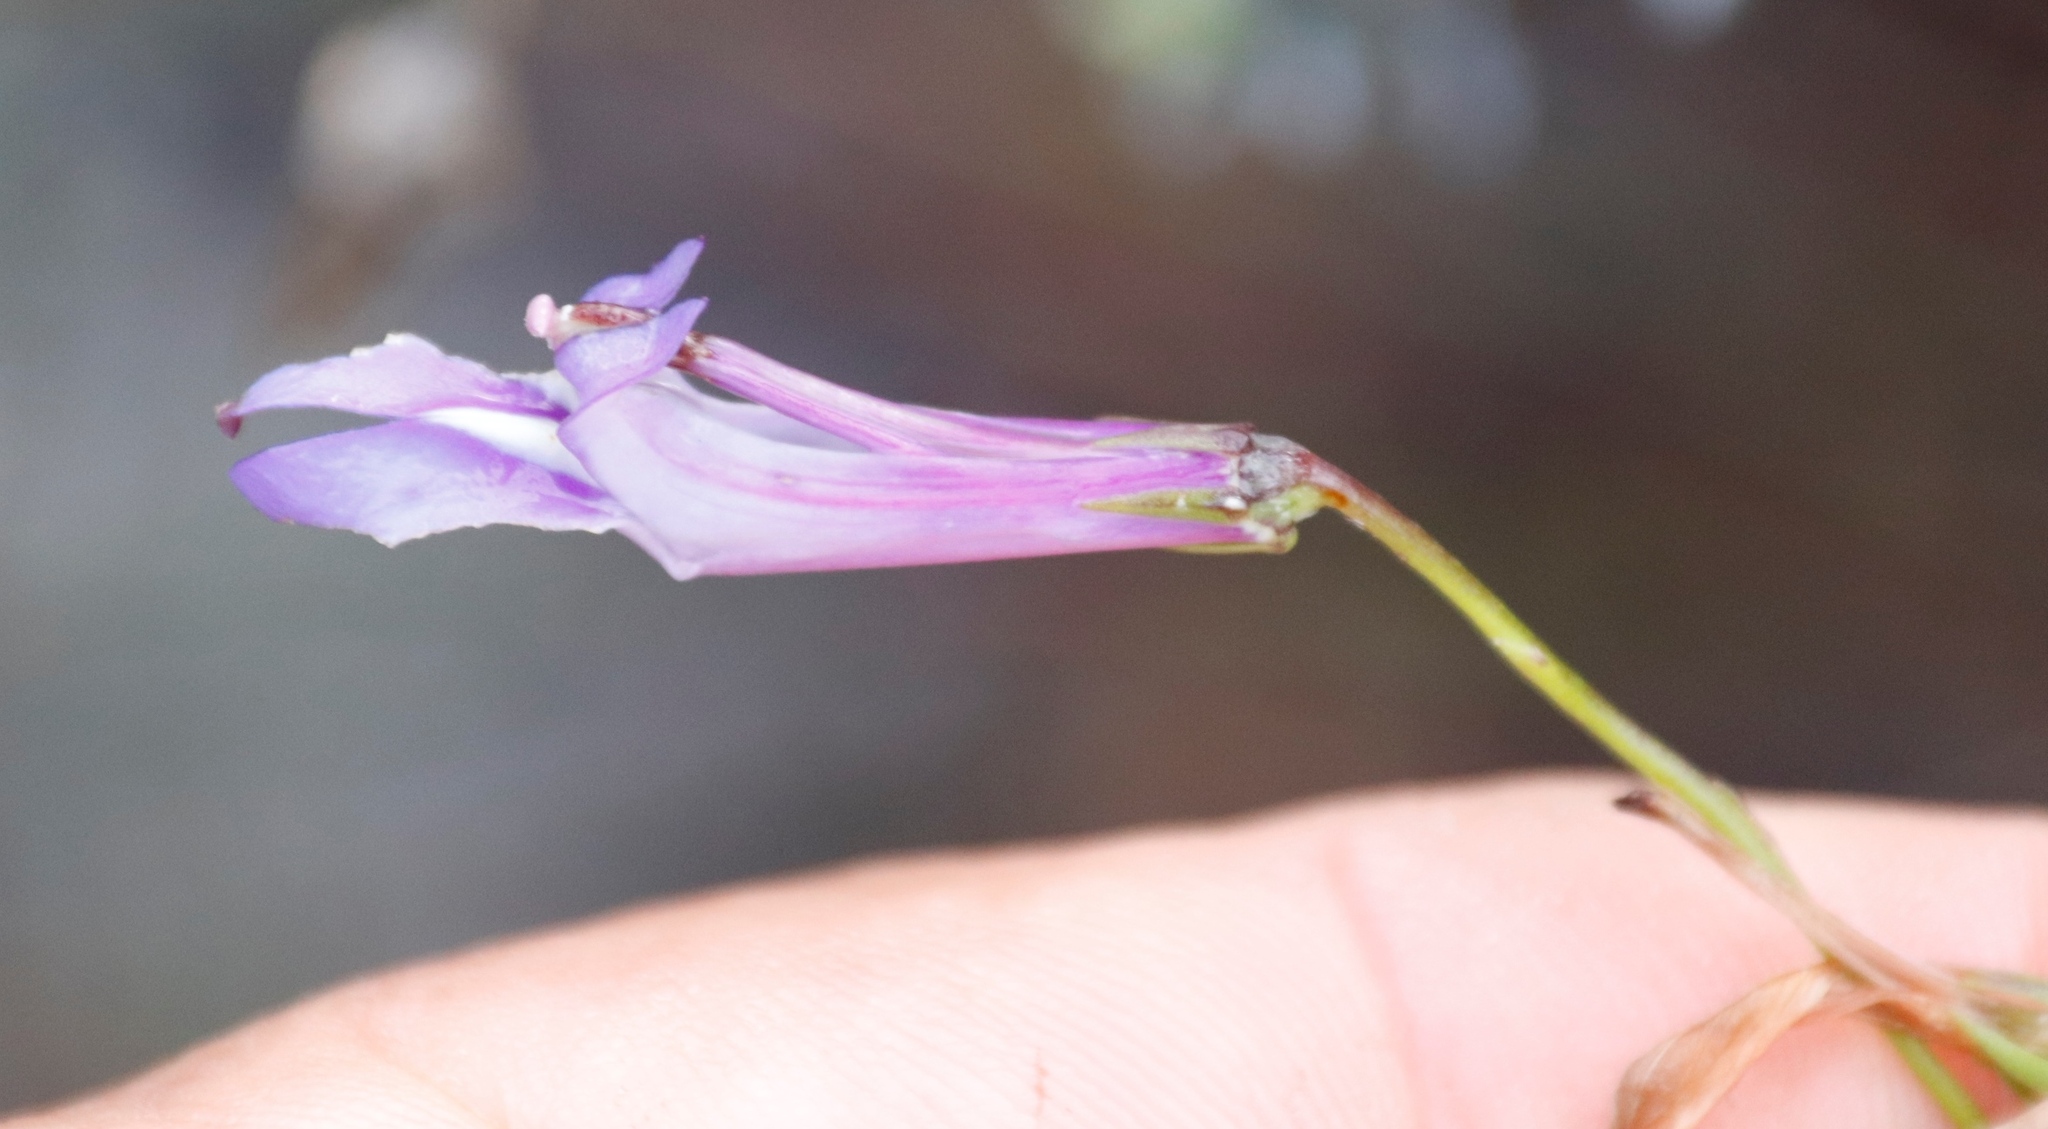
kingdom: Plantae
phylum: Tracheophyta
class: Magnoliopsida
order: Asterales
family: Campanulaceae
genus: Lobelia
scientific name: Lobelia coronopifolia
